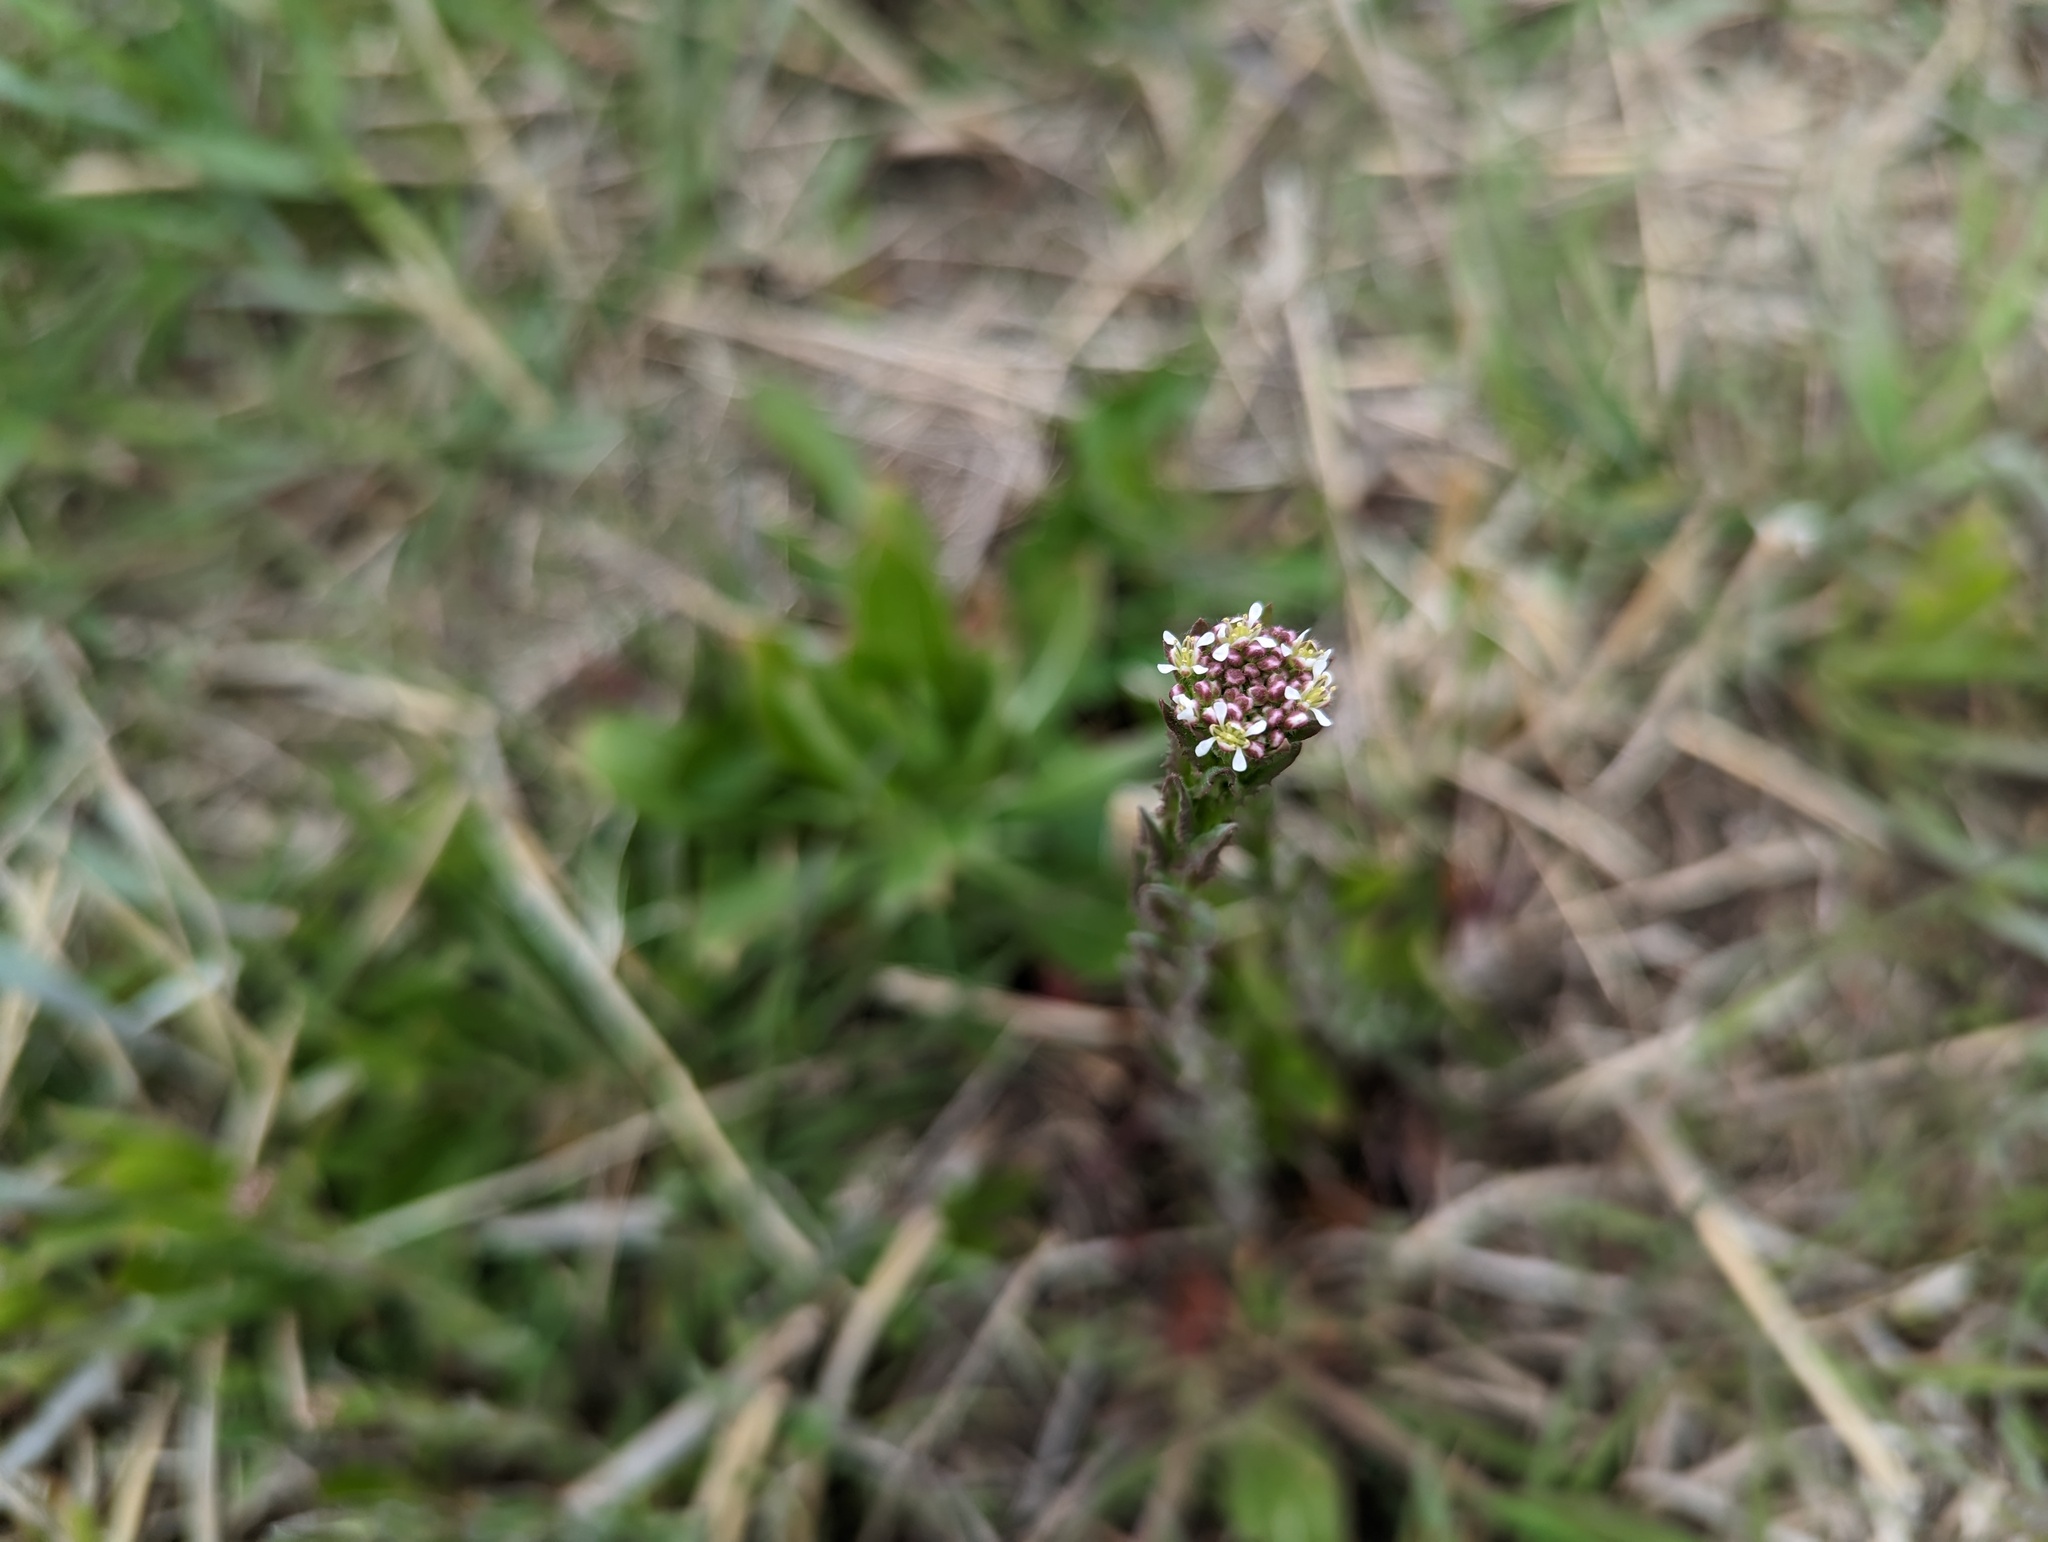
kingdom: Plantae
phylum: Tracheophyta
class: Magnoliopsida
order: Brassicales
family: Brassicaceae
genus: Lepidium
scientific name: Lepidium campestre
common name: Field pepperwort
